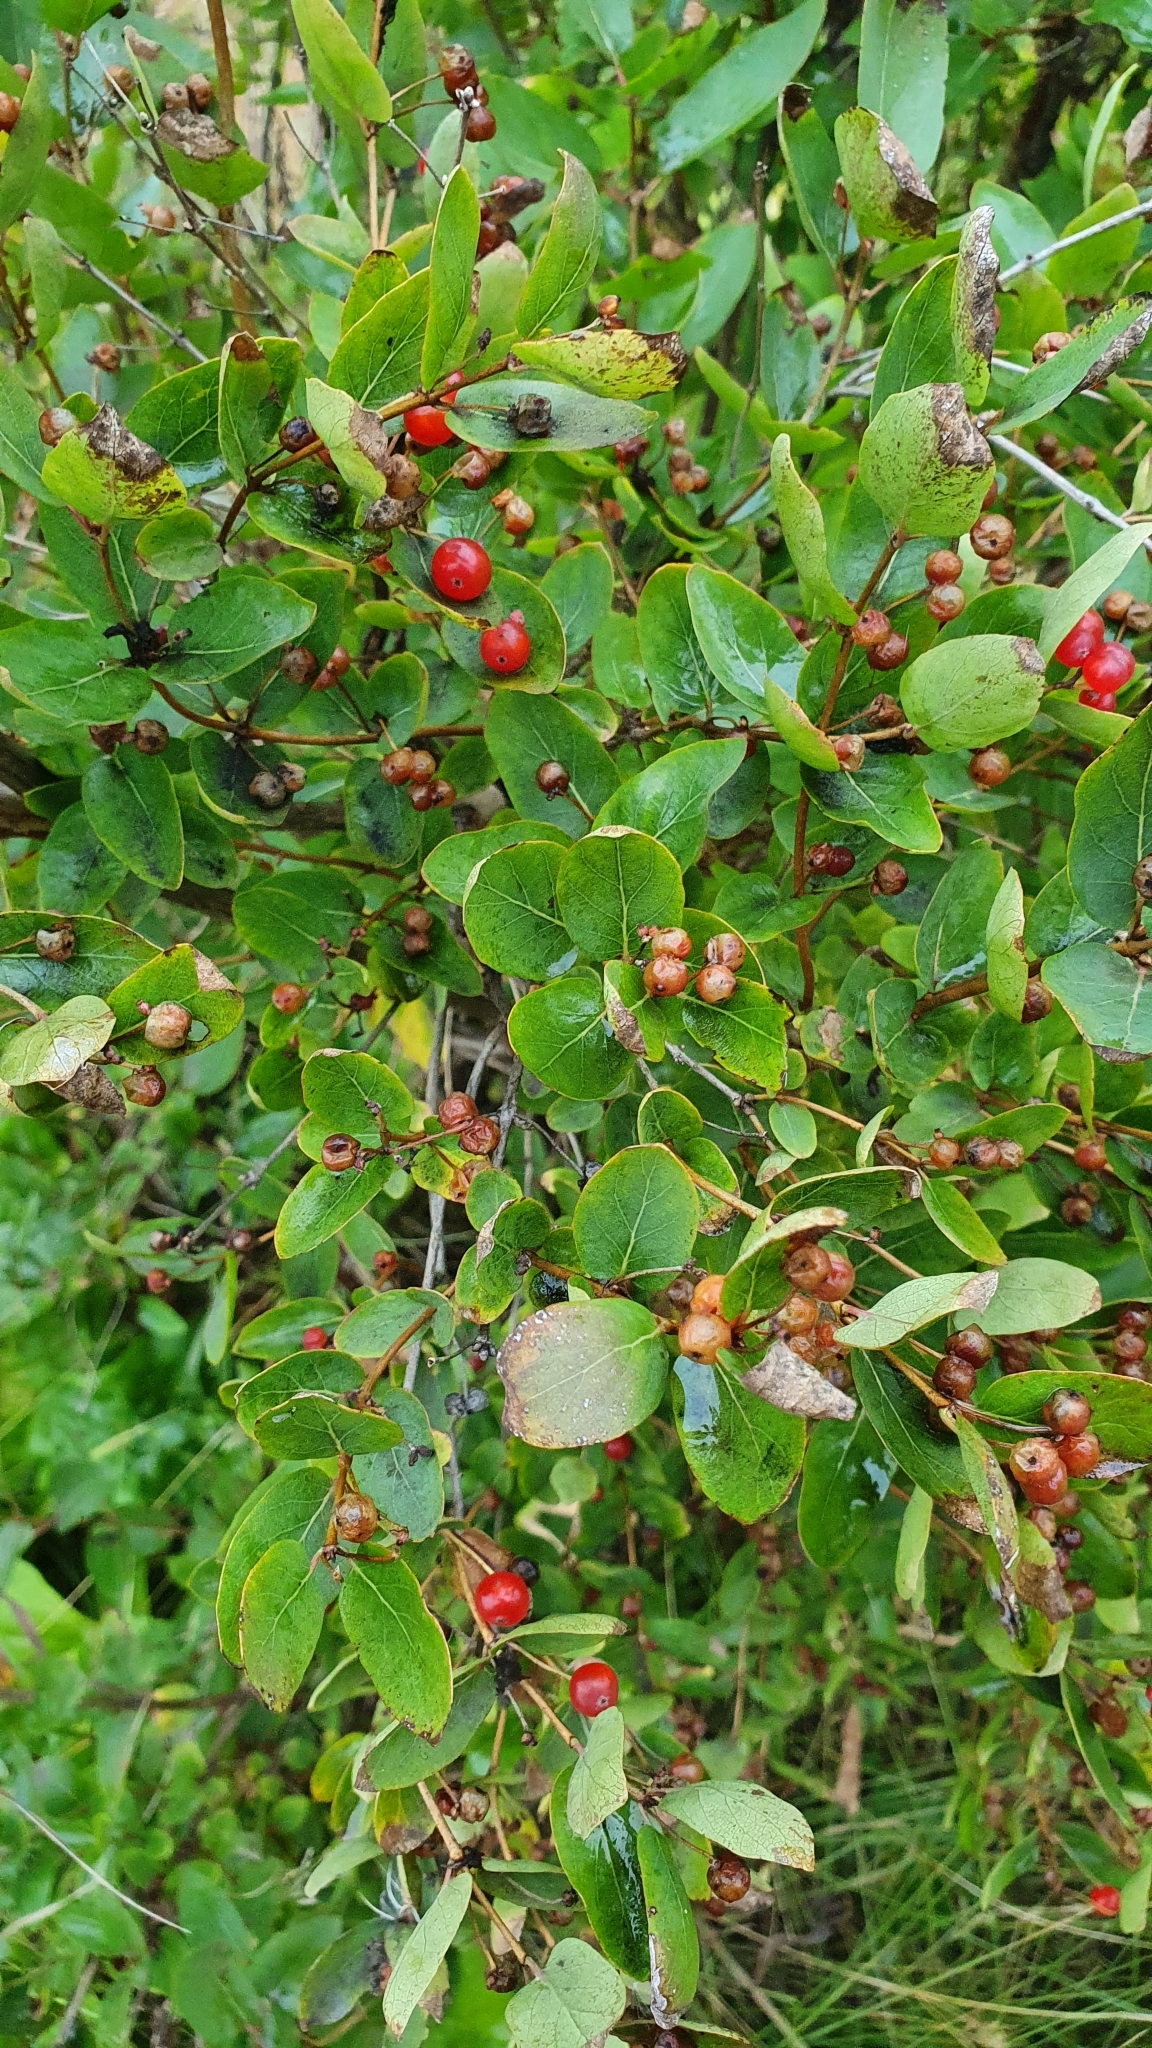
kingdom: Plantae
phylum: Tracheophyta
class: Magnoliopsida
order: Dipsacales
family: Caprifoliaceae
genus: Lonicera
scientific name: Lonicera tatarica
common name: Tatarian honeysuckle
